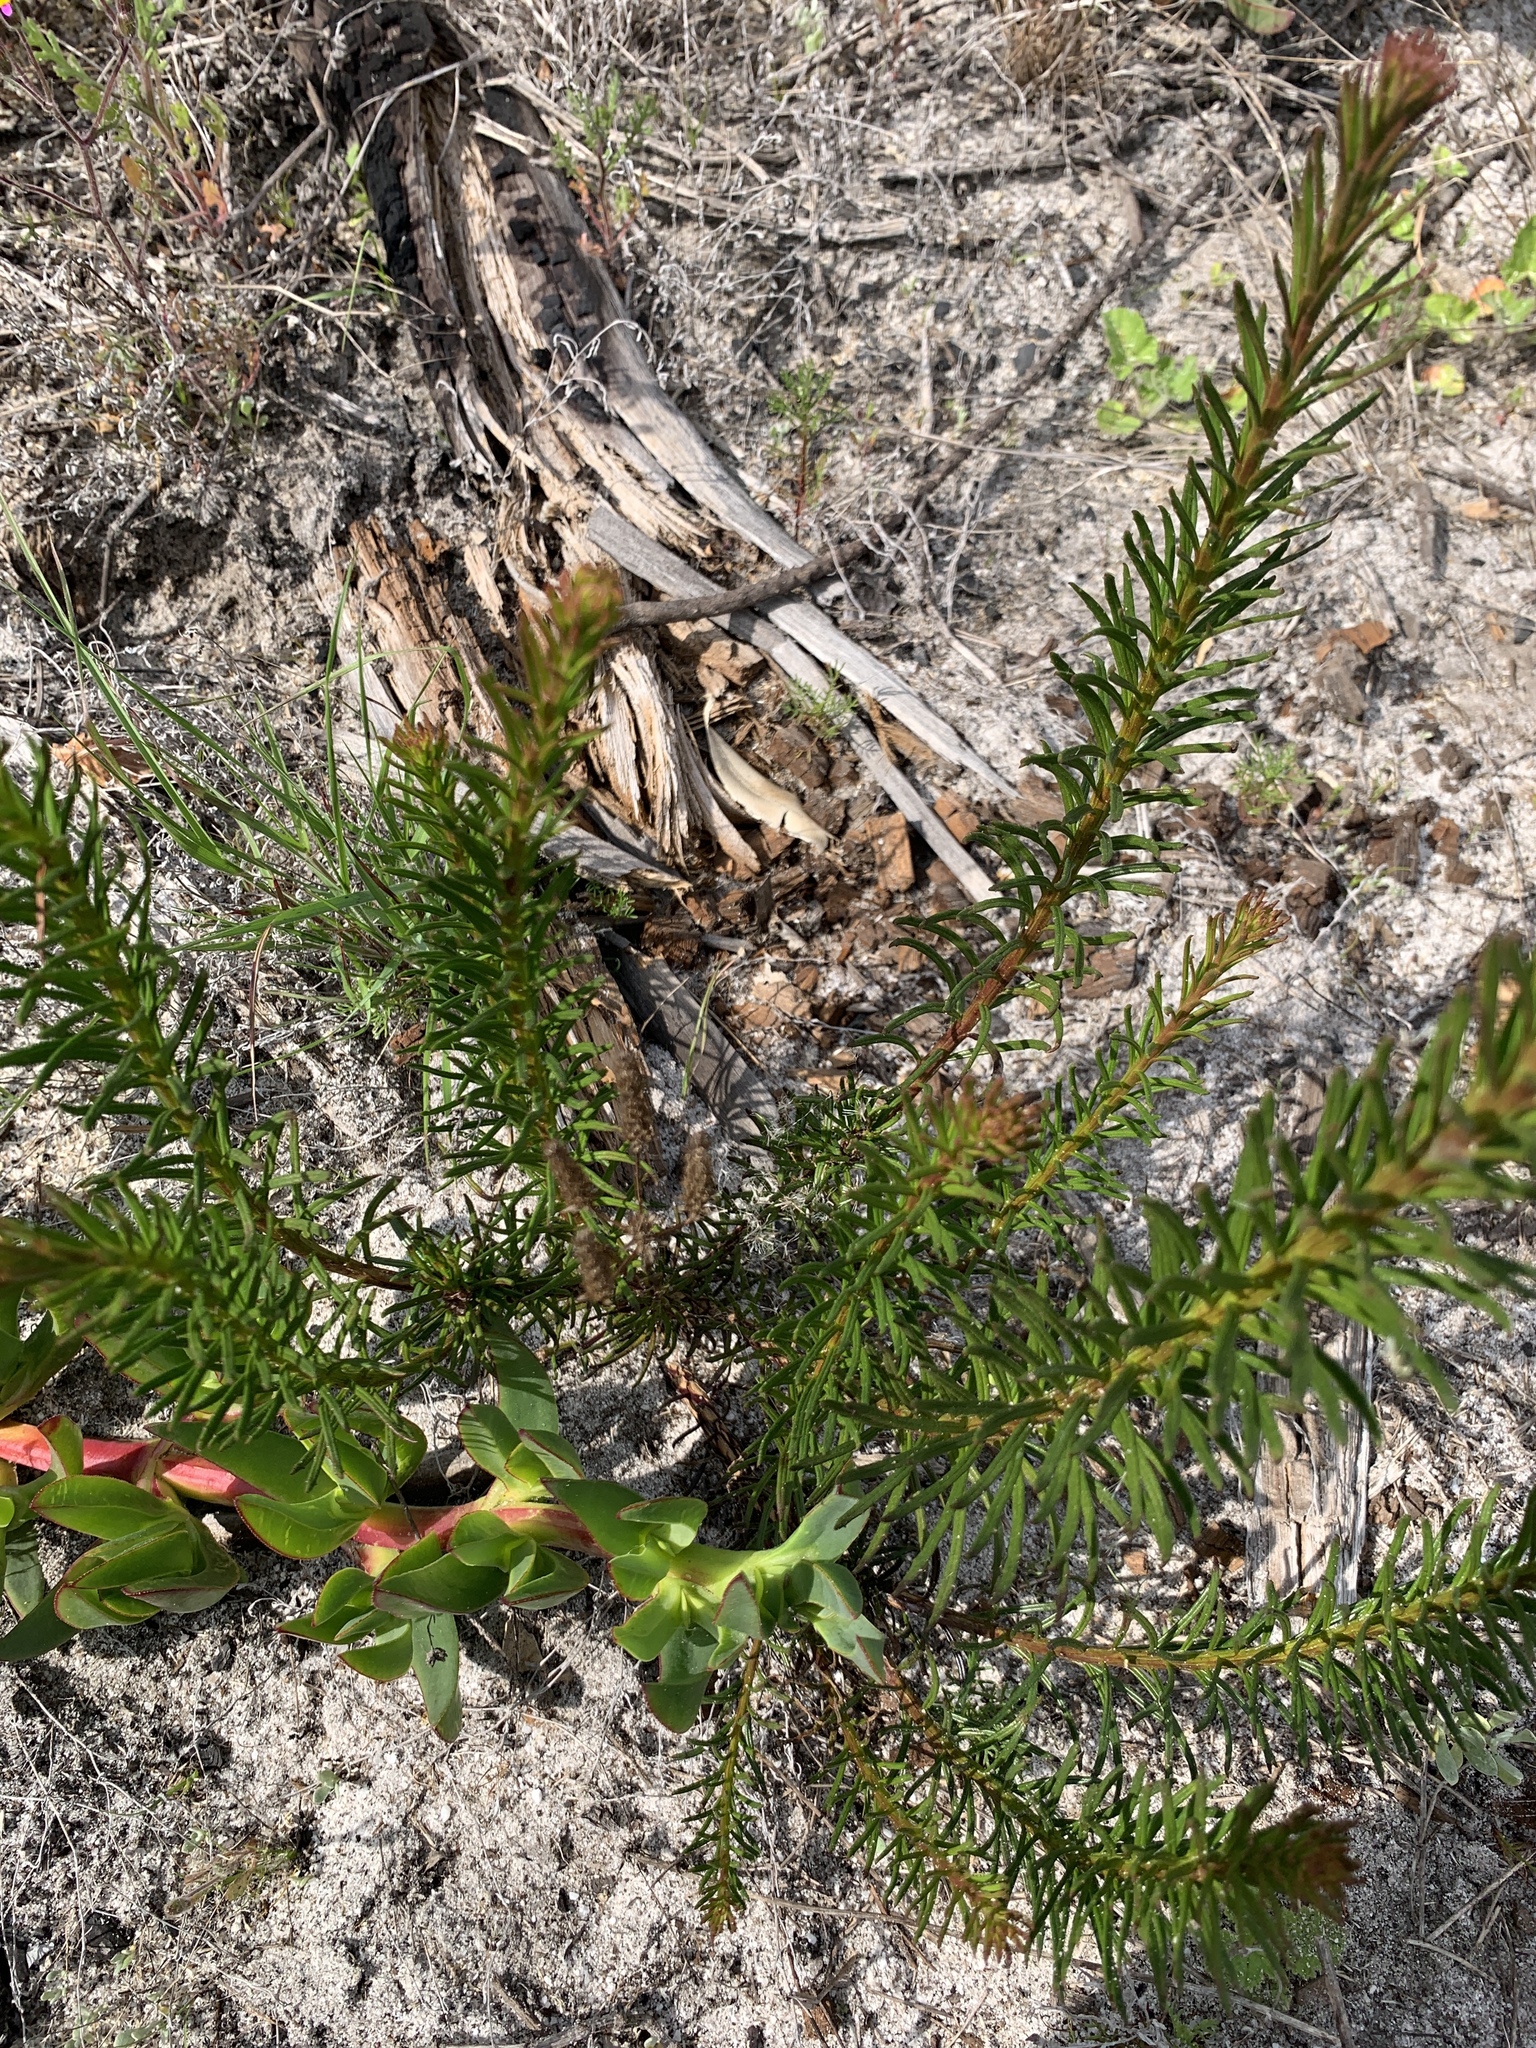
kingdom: Plantae
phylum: Tracheophyta
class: Magnoliopsida
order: Lamiales
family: Scrophulariaceae
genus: Pseudoselago
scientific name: Pseudoselago spuria
